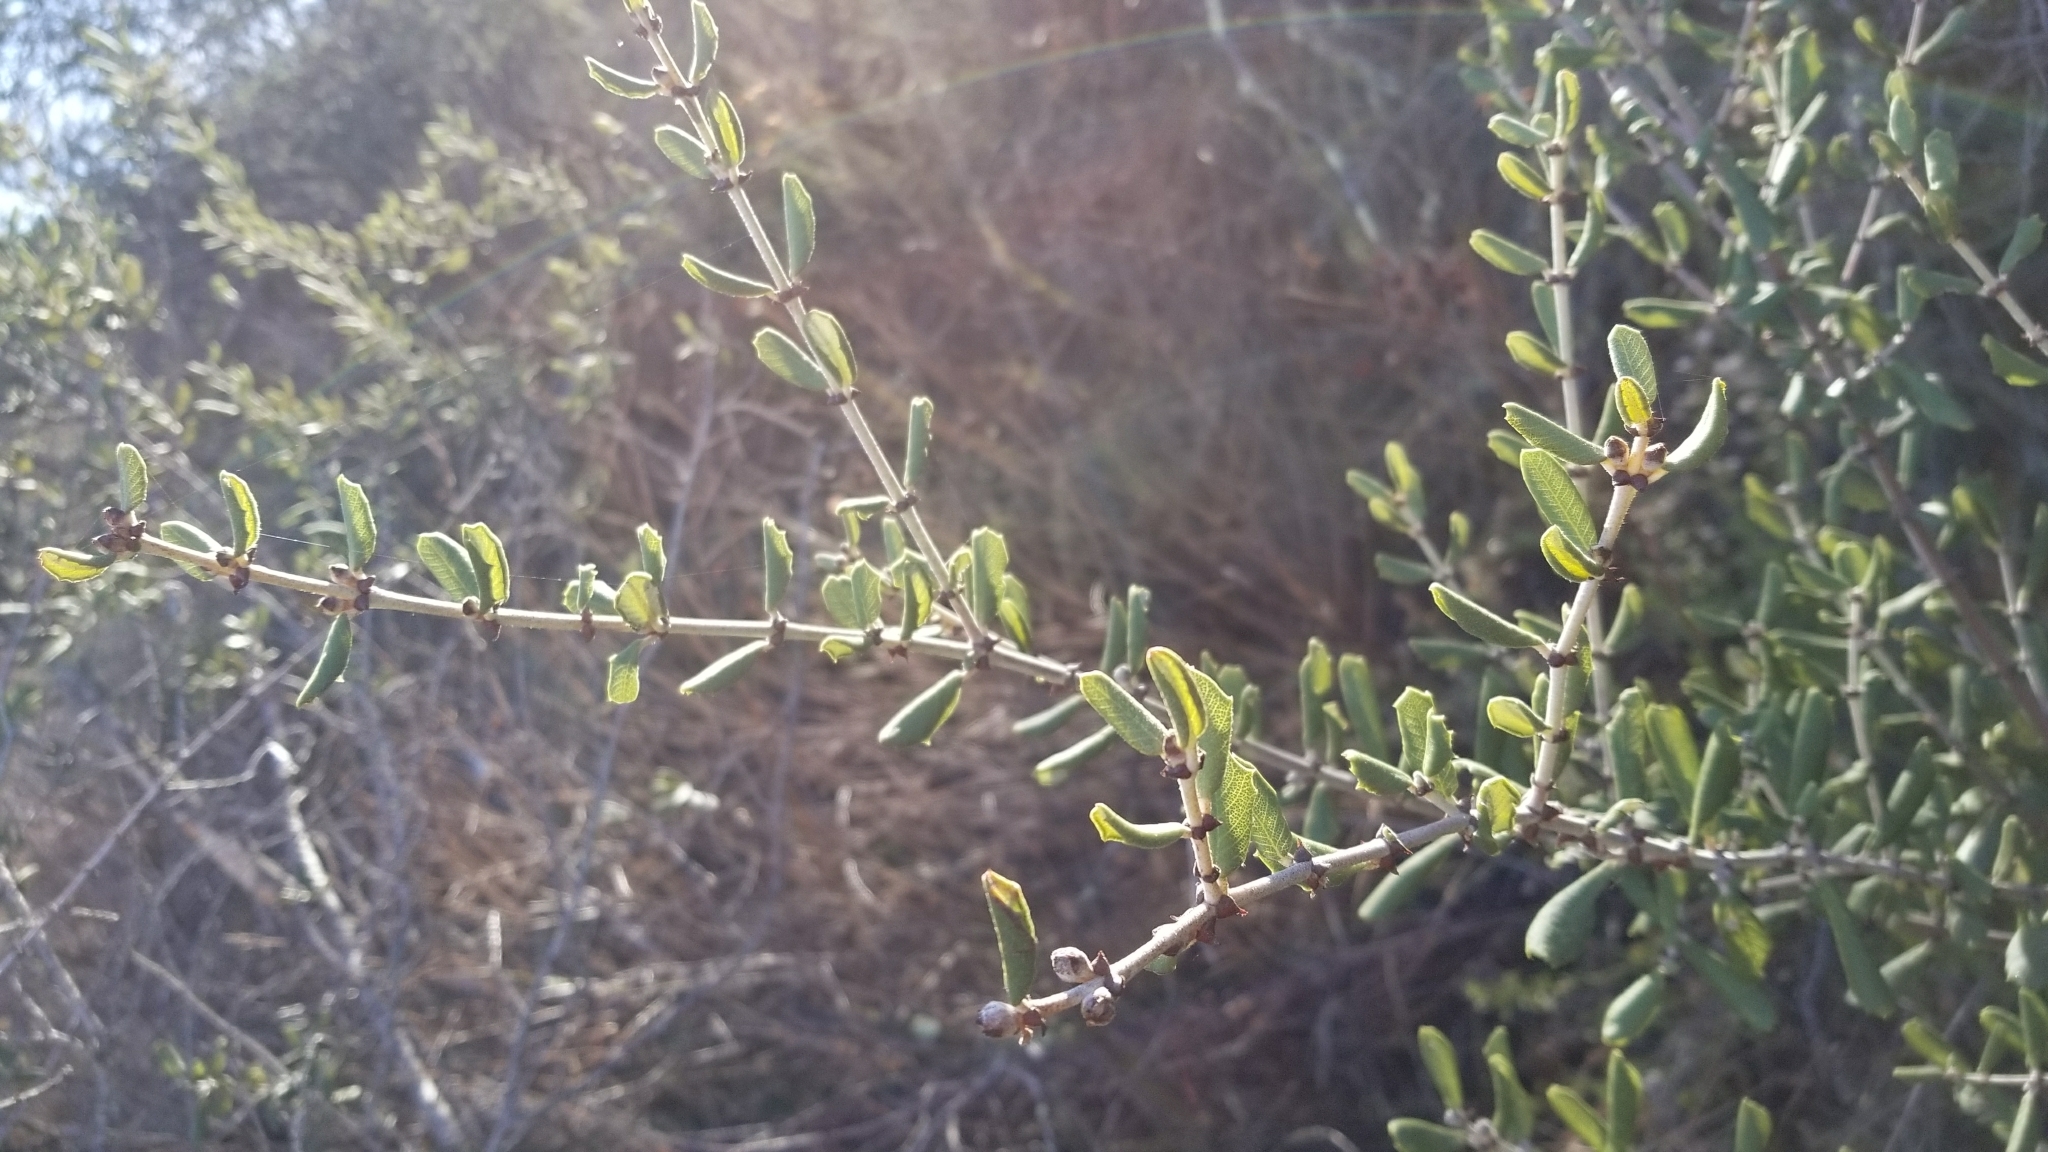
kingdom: Plantae
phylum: Tracheophyta
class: Magnoliopsida
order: Rosales
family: Rhamnaceae
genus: Ceanothus
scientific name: Ceanothus crassifolius
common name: Hoaryleaf ceanothus
